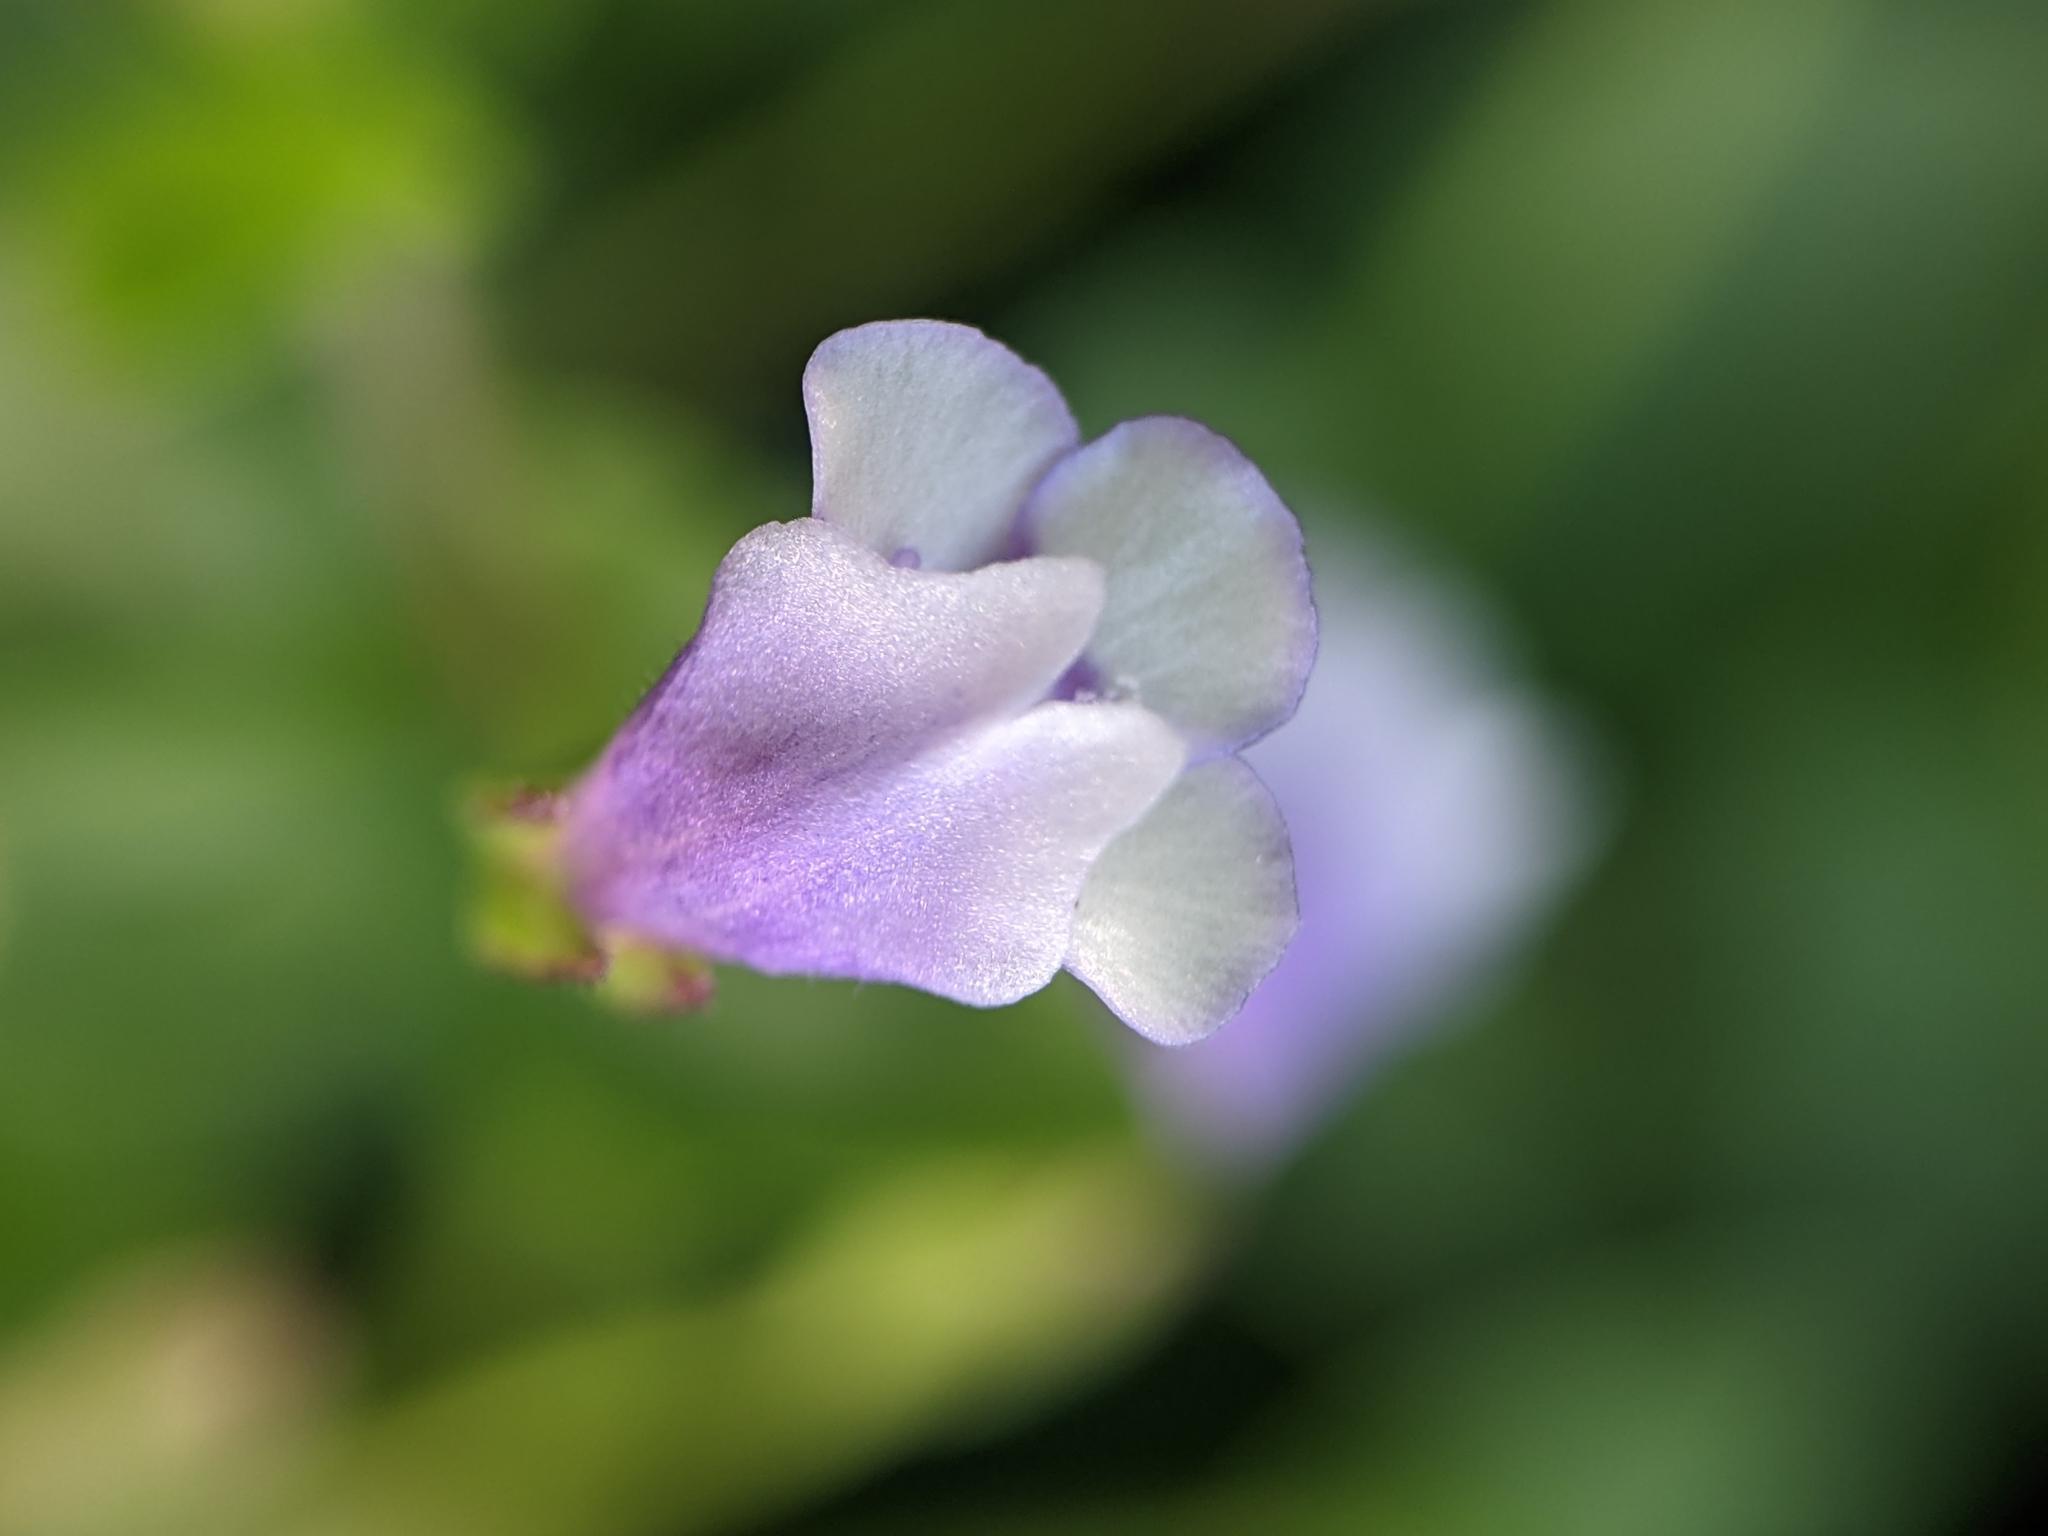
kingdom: Plantae
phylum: Tracheophyta
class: Magnoliopsida
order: Lamiales
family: Linderniaceae
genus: Torenia
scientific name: Torenia crustacea
